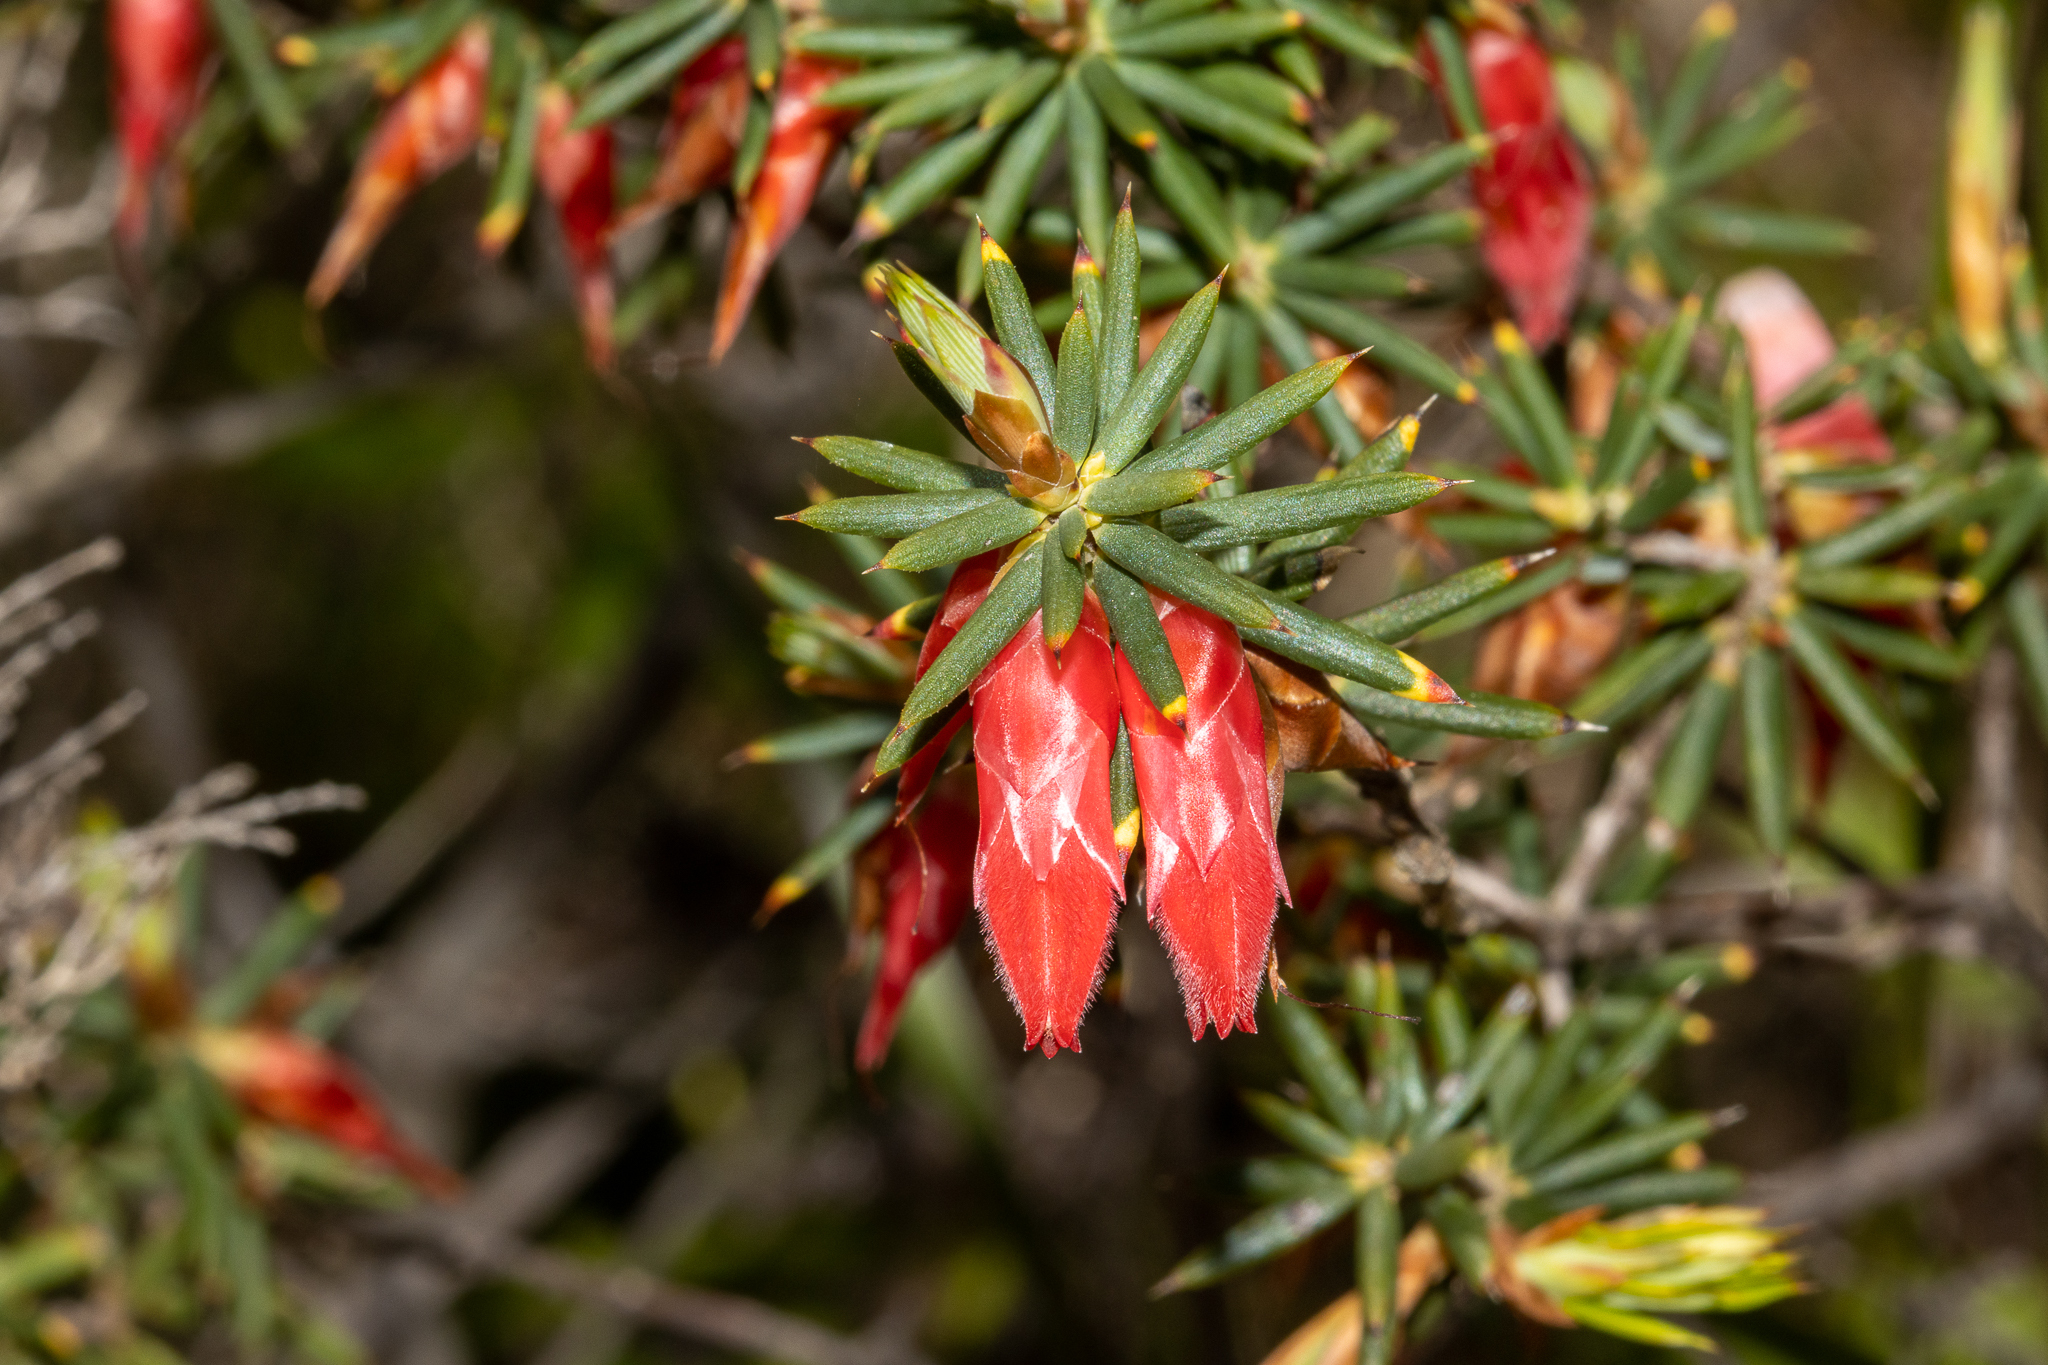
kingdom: Plantae
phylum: Tracheophyta
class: Magnoliopsida
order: Ericales
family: Ericaceae
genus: Stenanthera
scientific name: Stenanthera conostephioides
